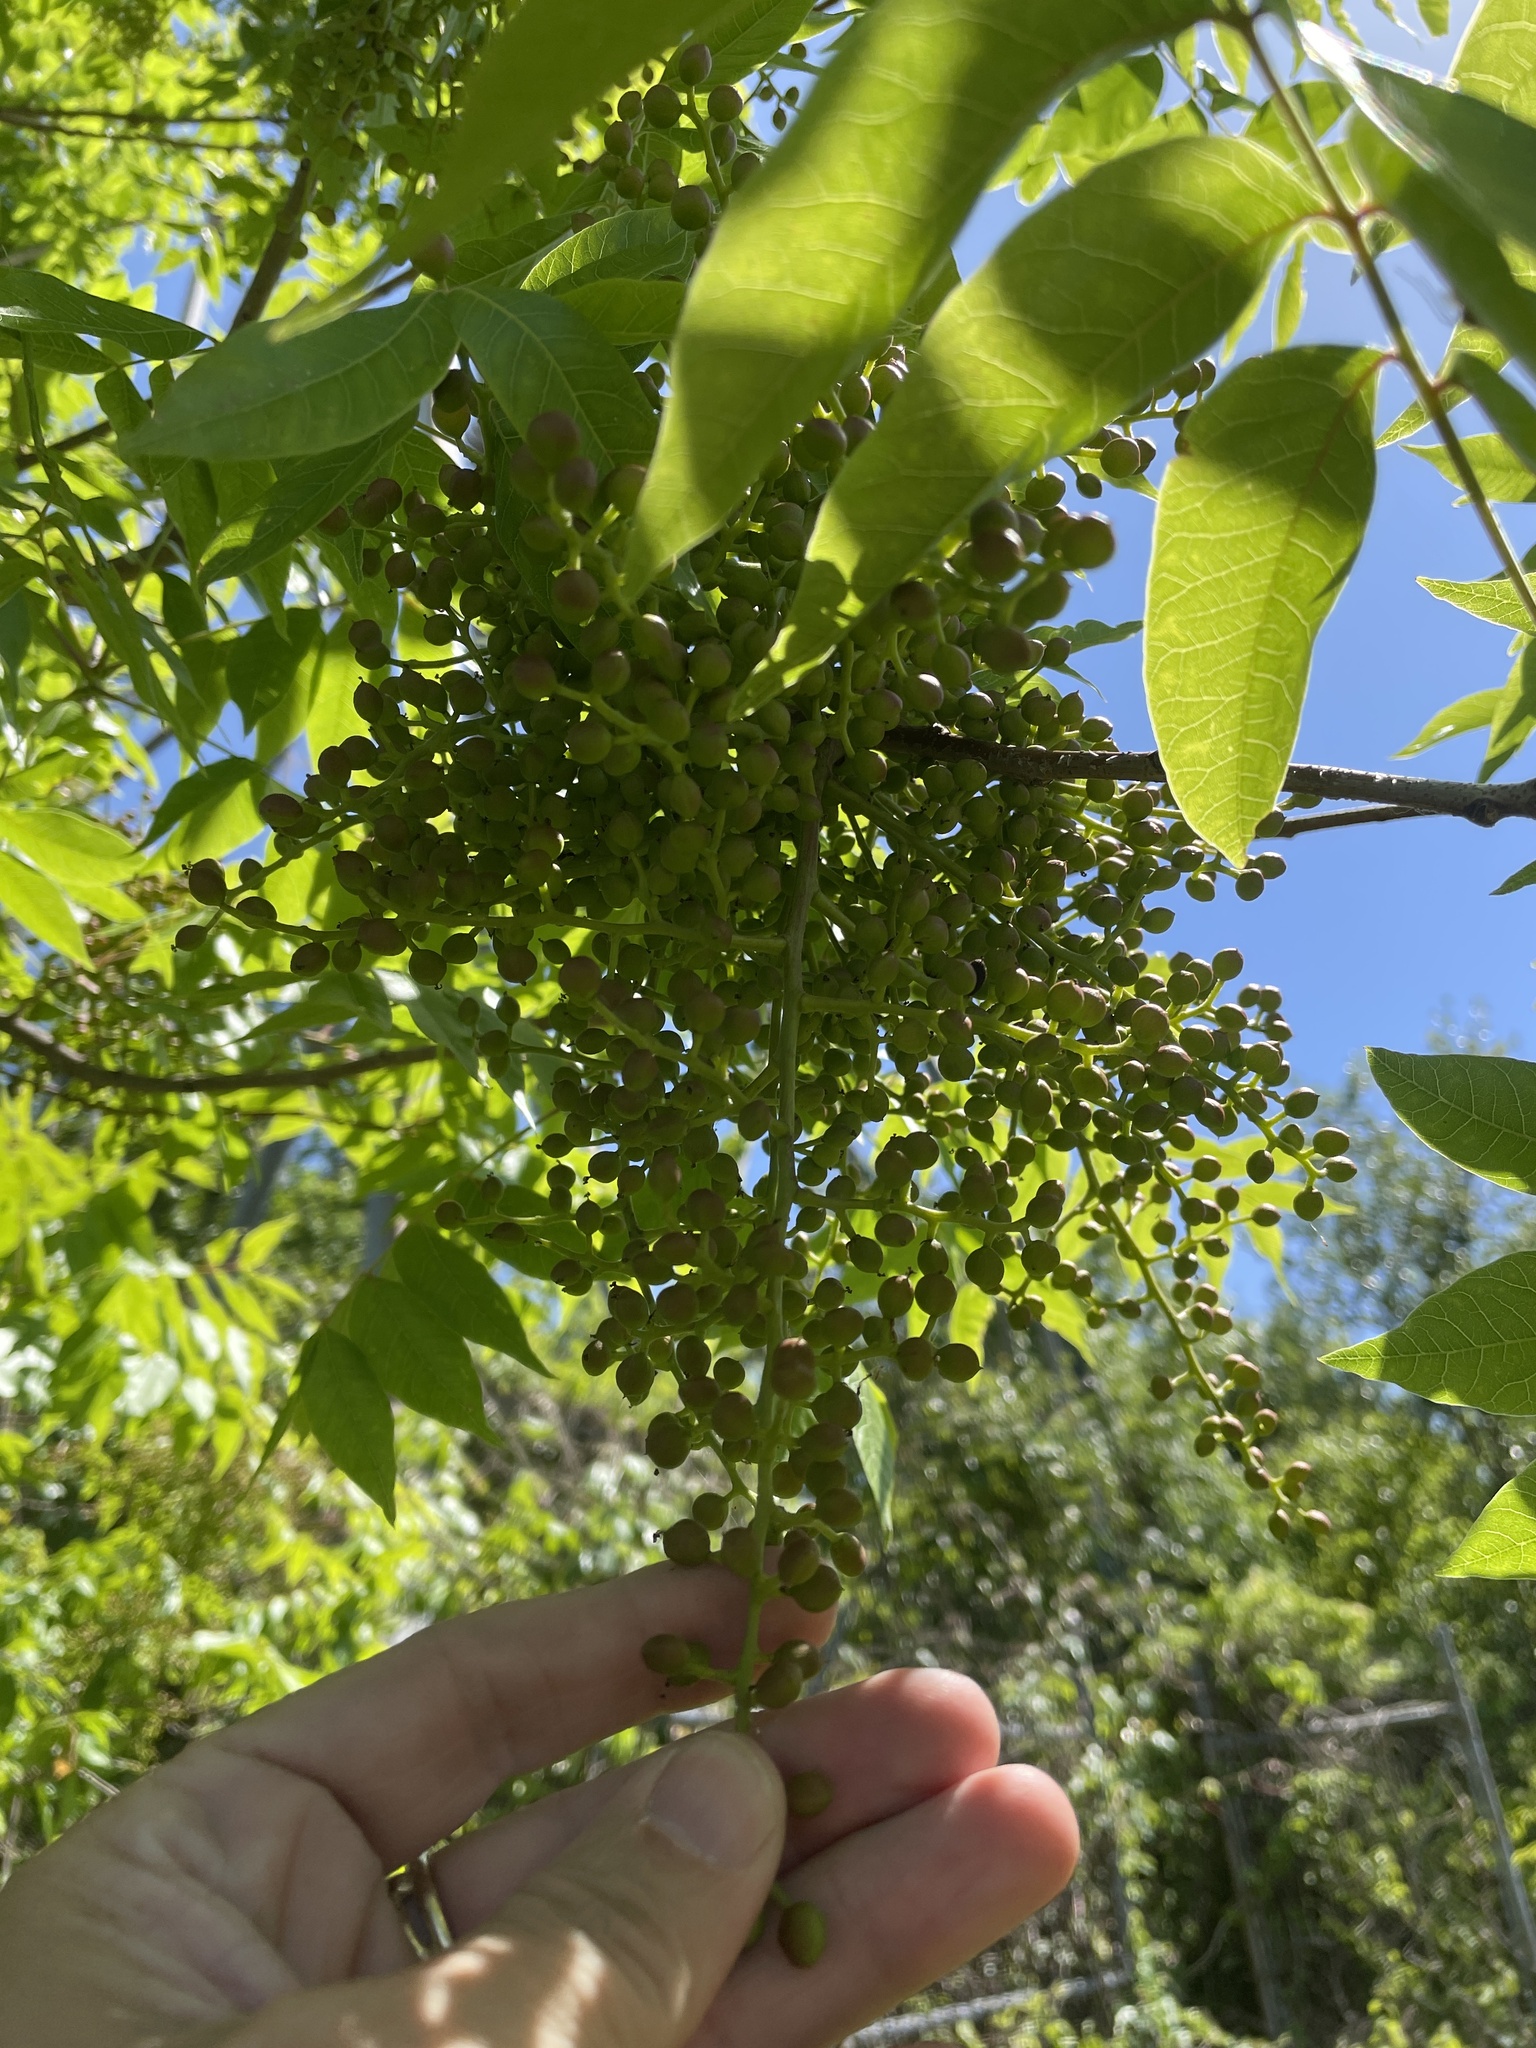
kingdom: Plantae
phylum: Tracheophyta
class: Magnoliopsida
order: Sapindales
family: Anacardiaceae
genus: Pistacia
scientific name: Pistacia chinensis
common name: Chinese pistache
